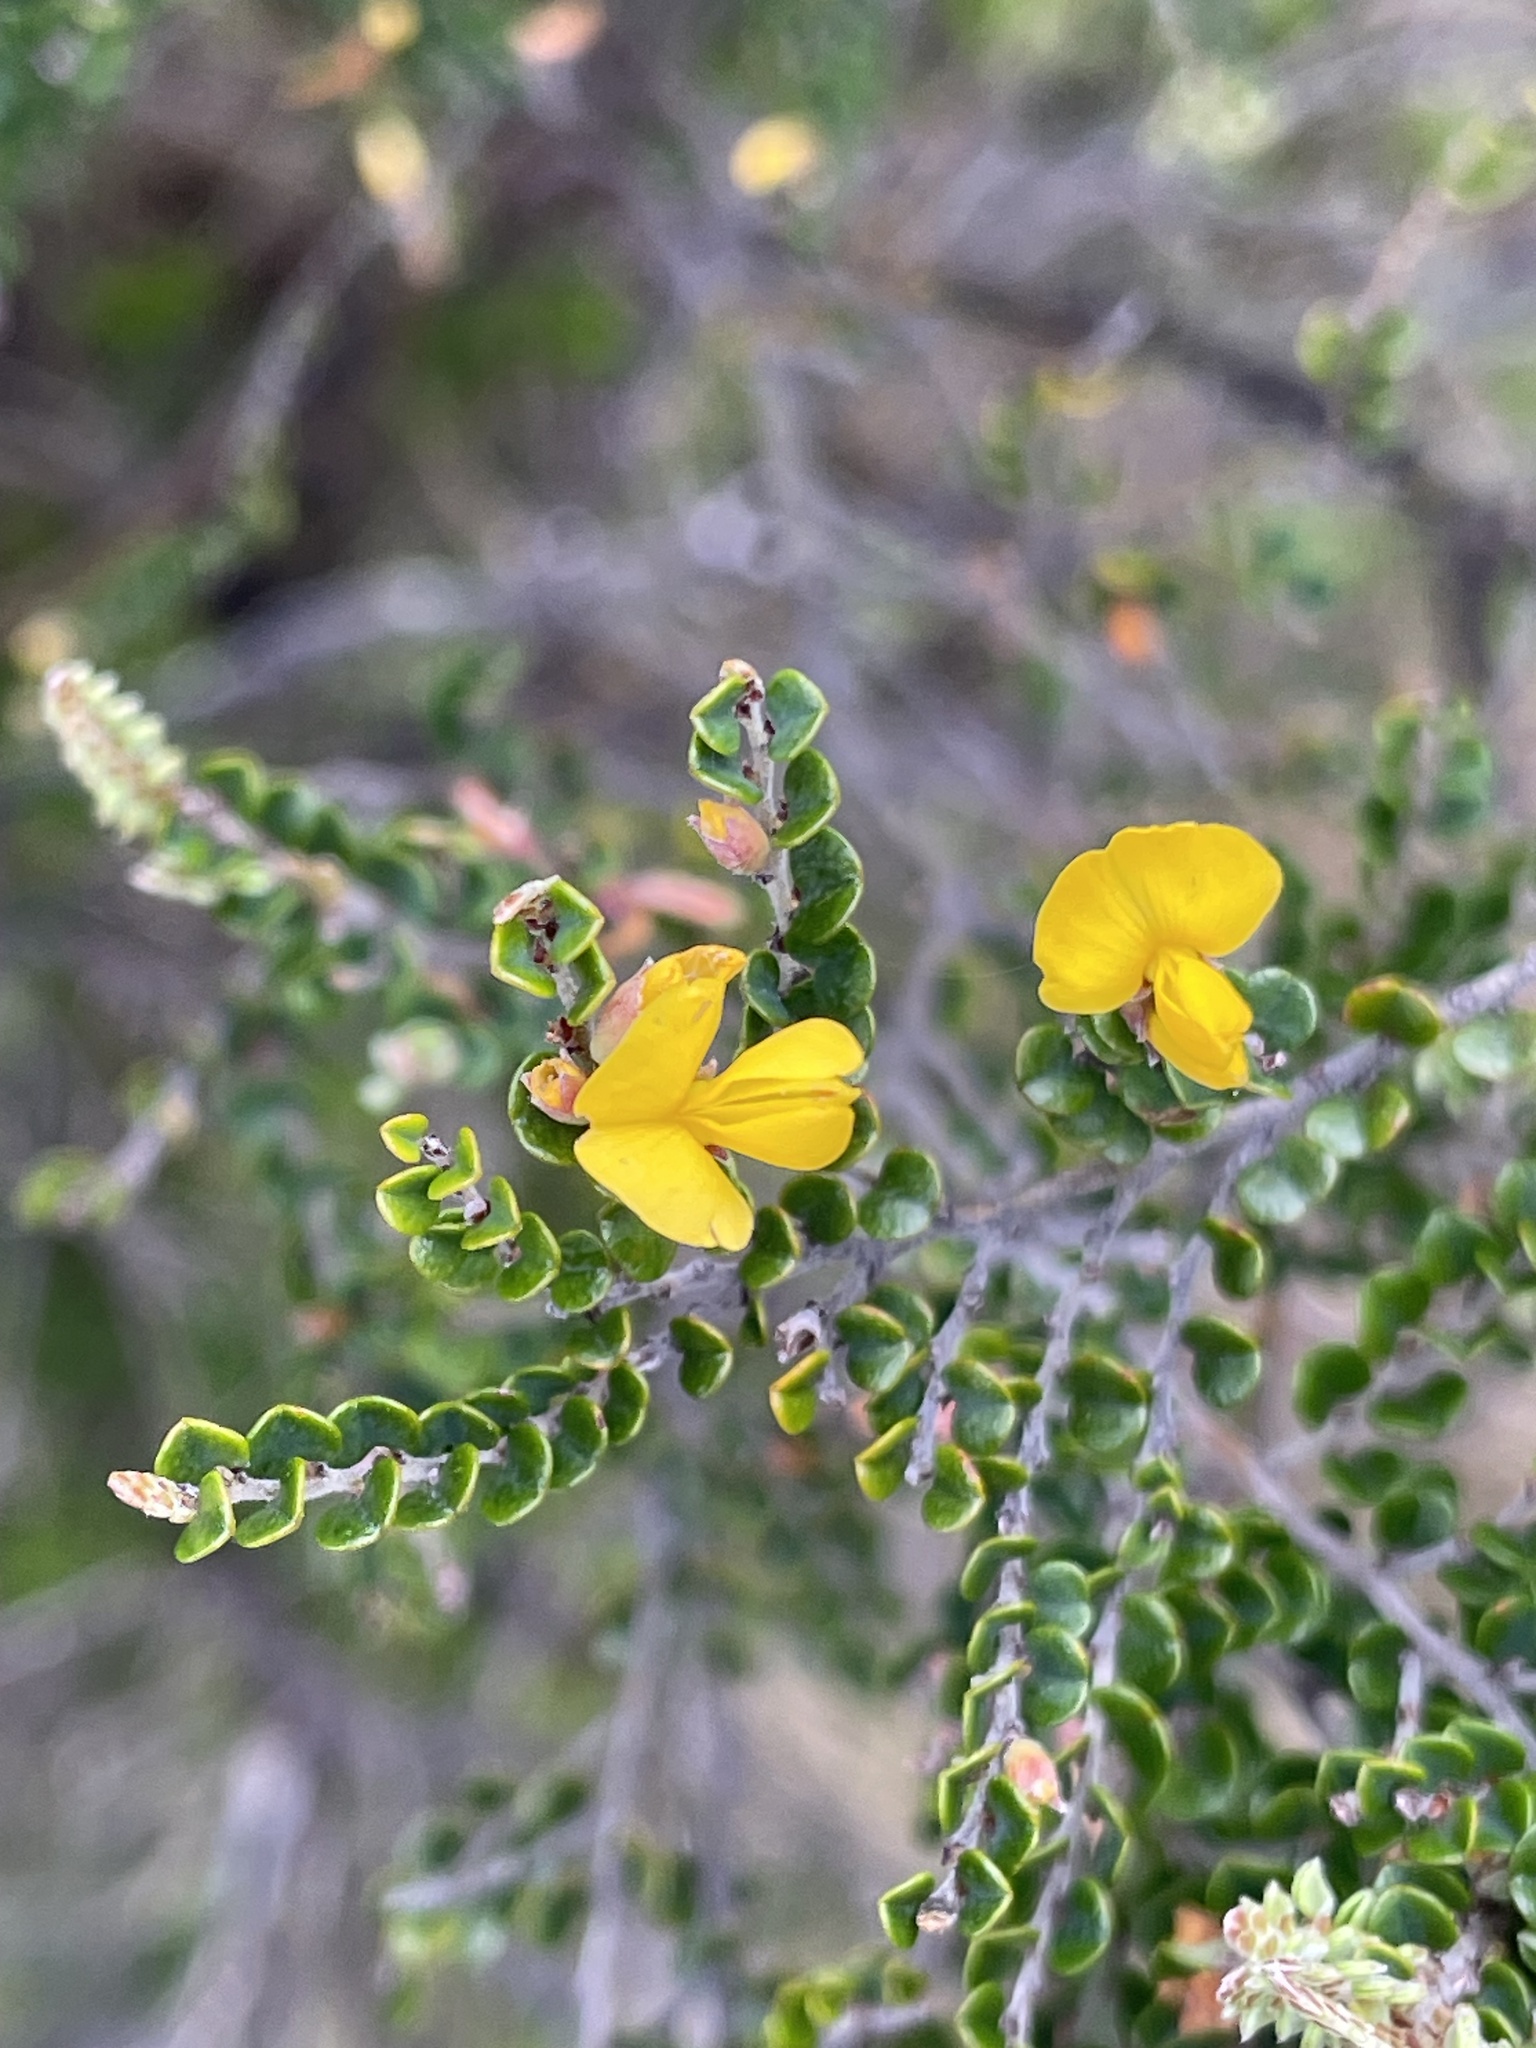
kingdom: Plantae
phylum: Tracheophyta
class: Magnoliopsida
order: Fabales
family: Fabaceae
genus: Bossiaea
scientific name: Bossiaea foliosa
